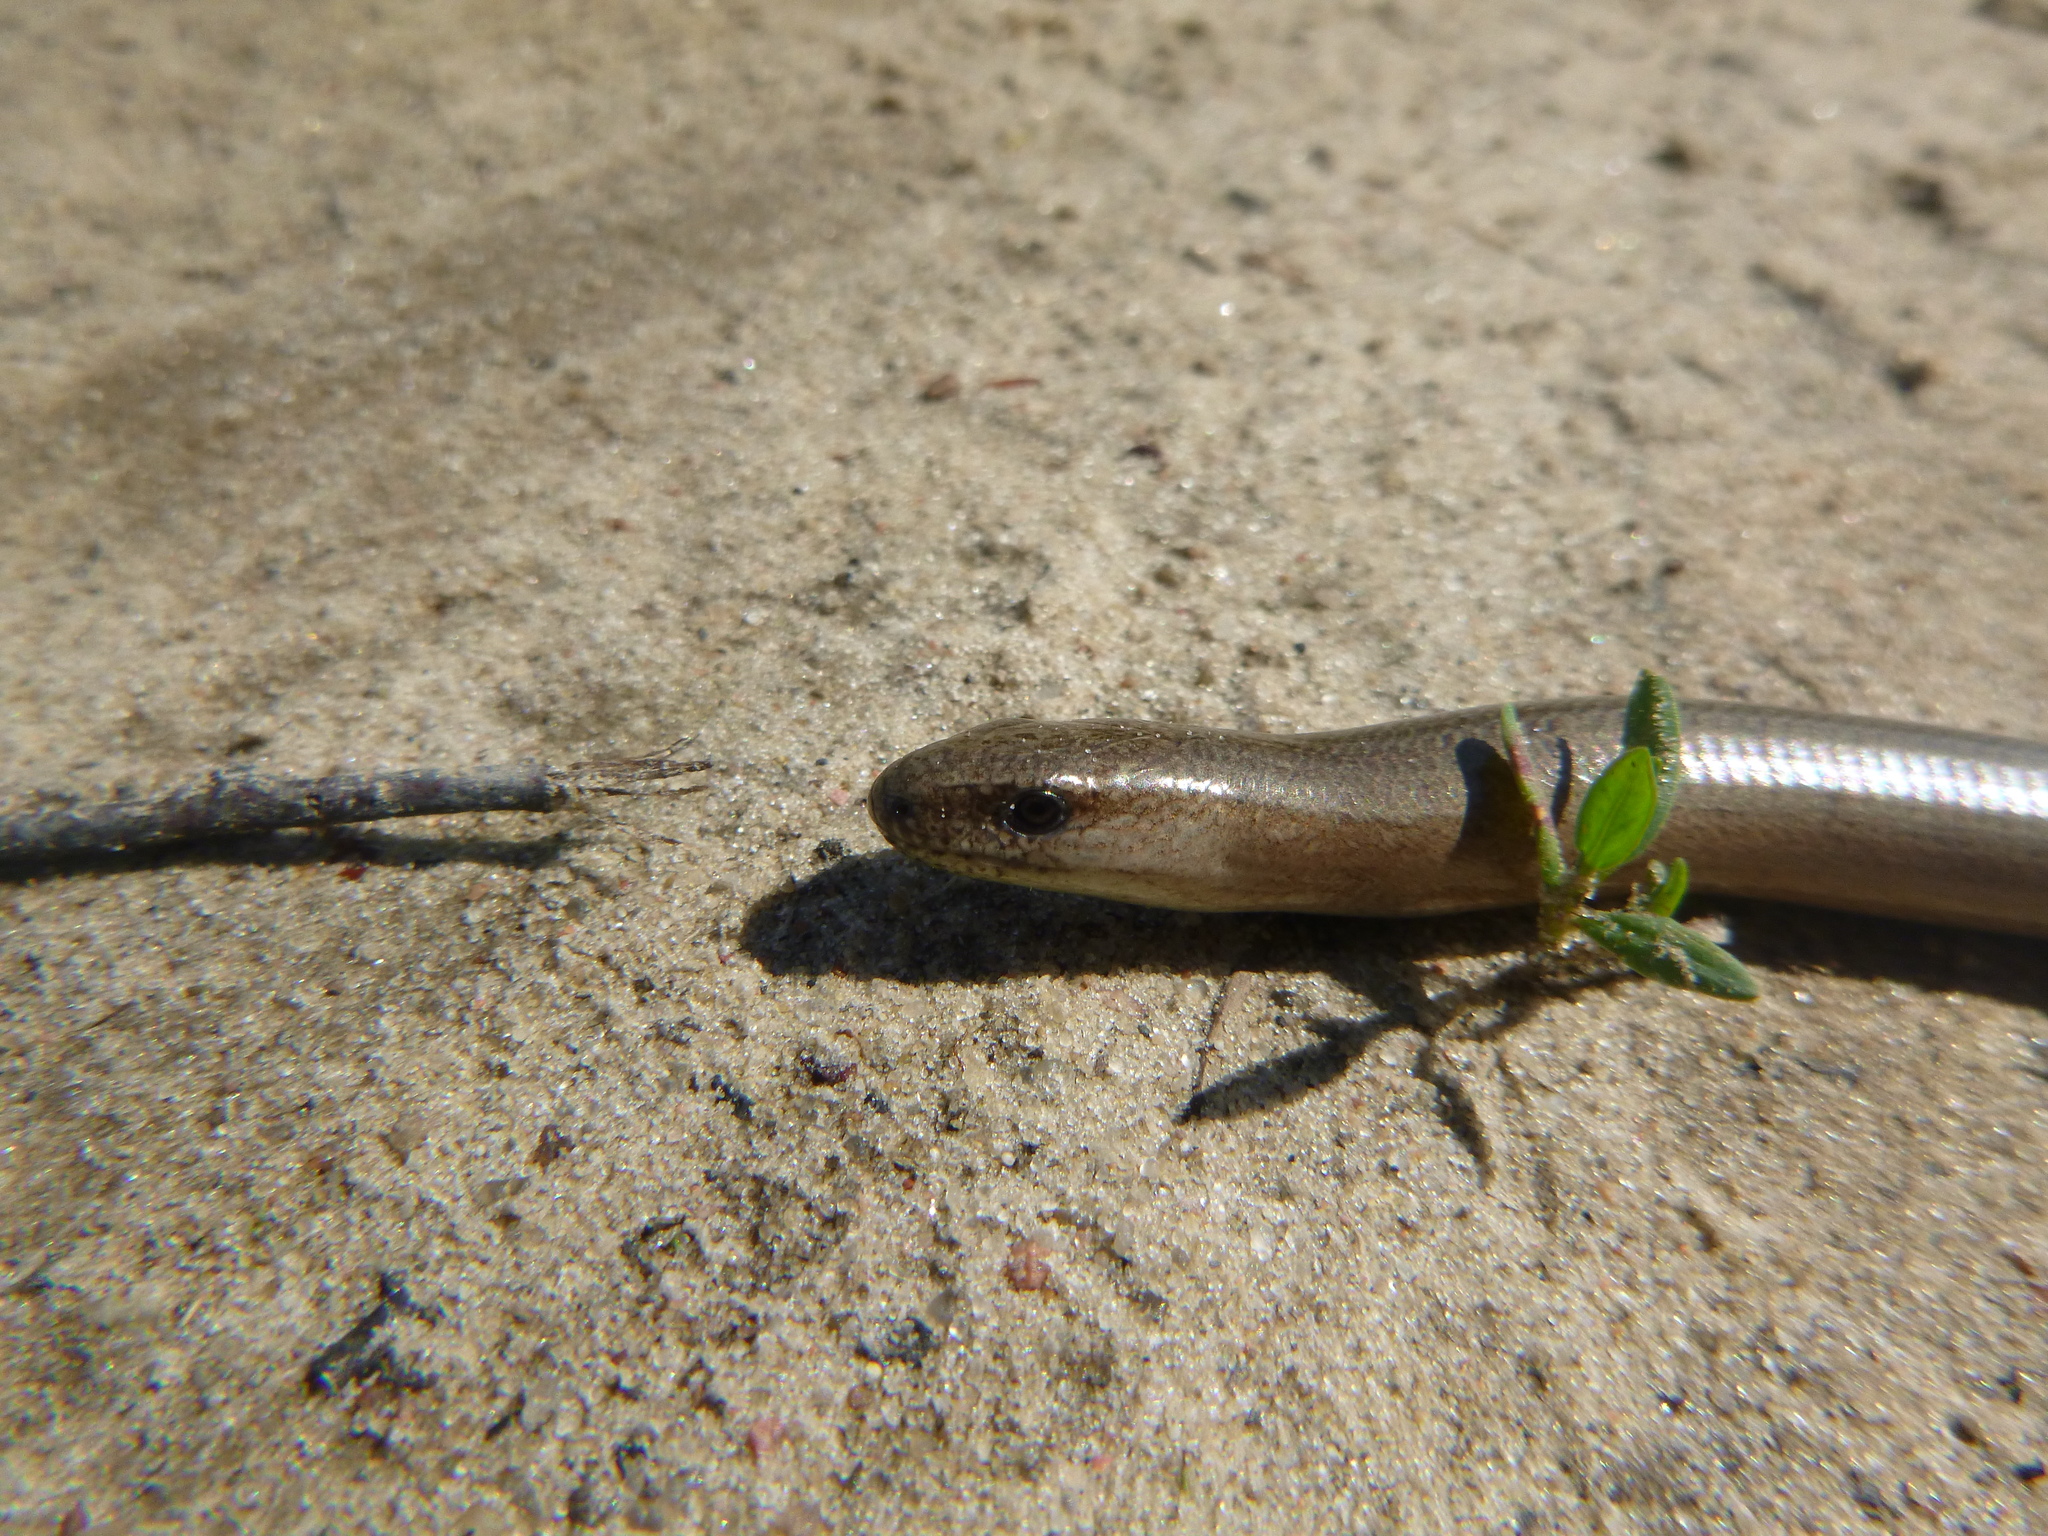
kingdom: Animalia
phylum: Chordata
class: Squamata
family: Anguidae
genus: Anguis
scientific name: Anguis fragilis
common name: Slow worm
